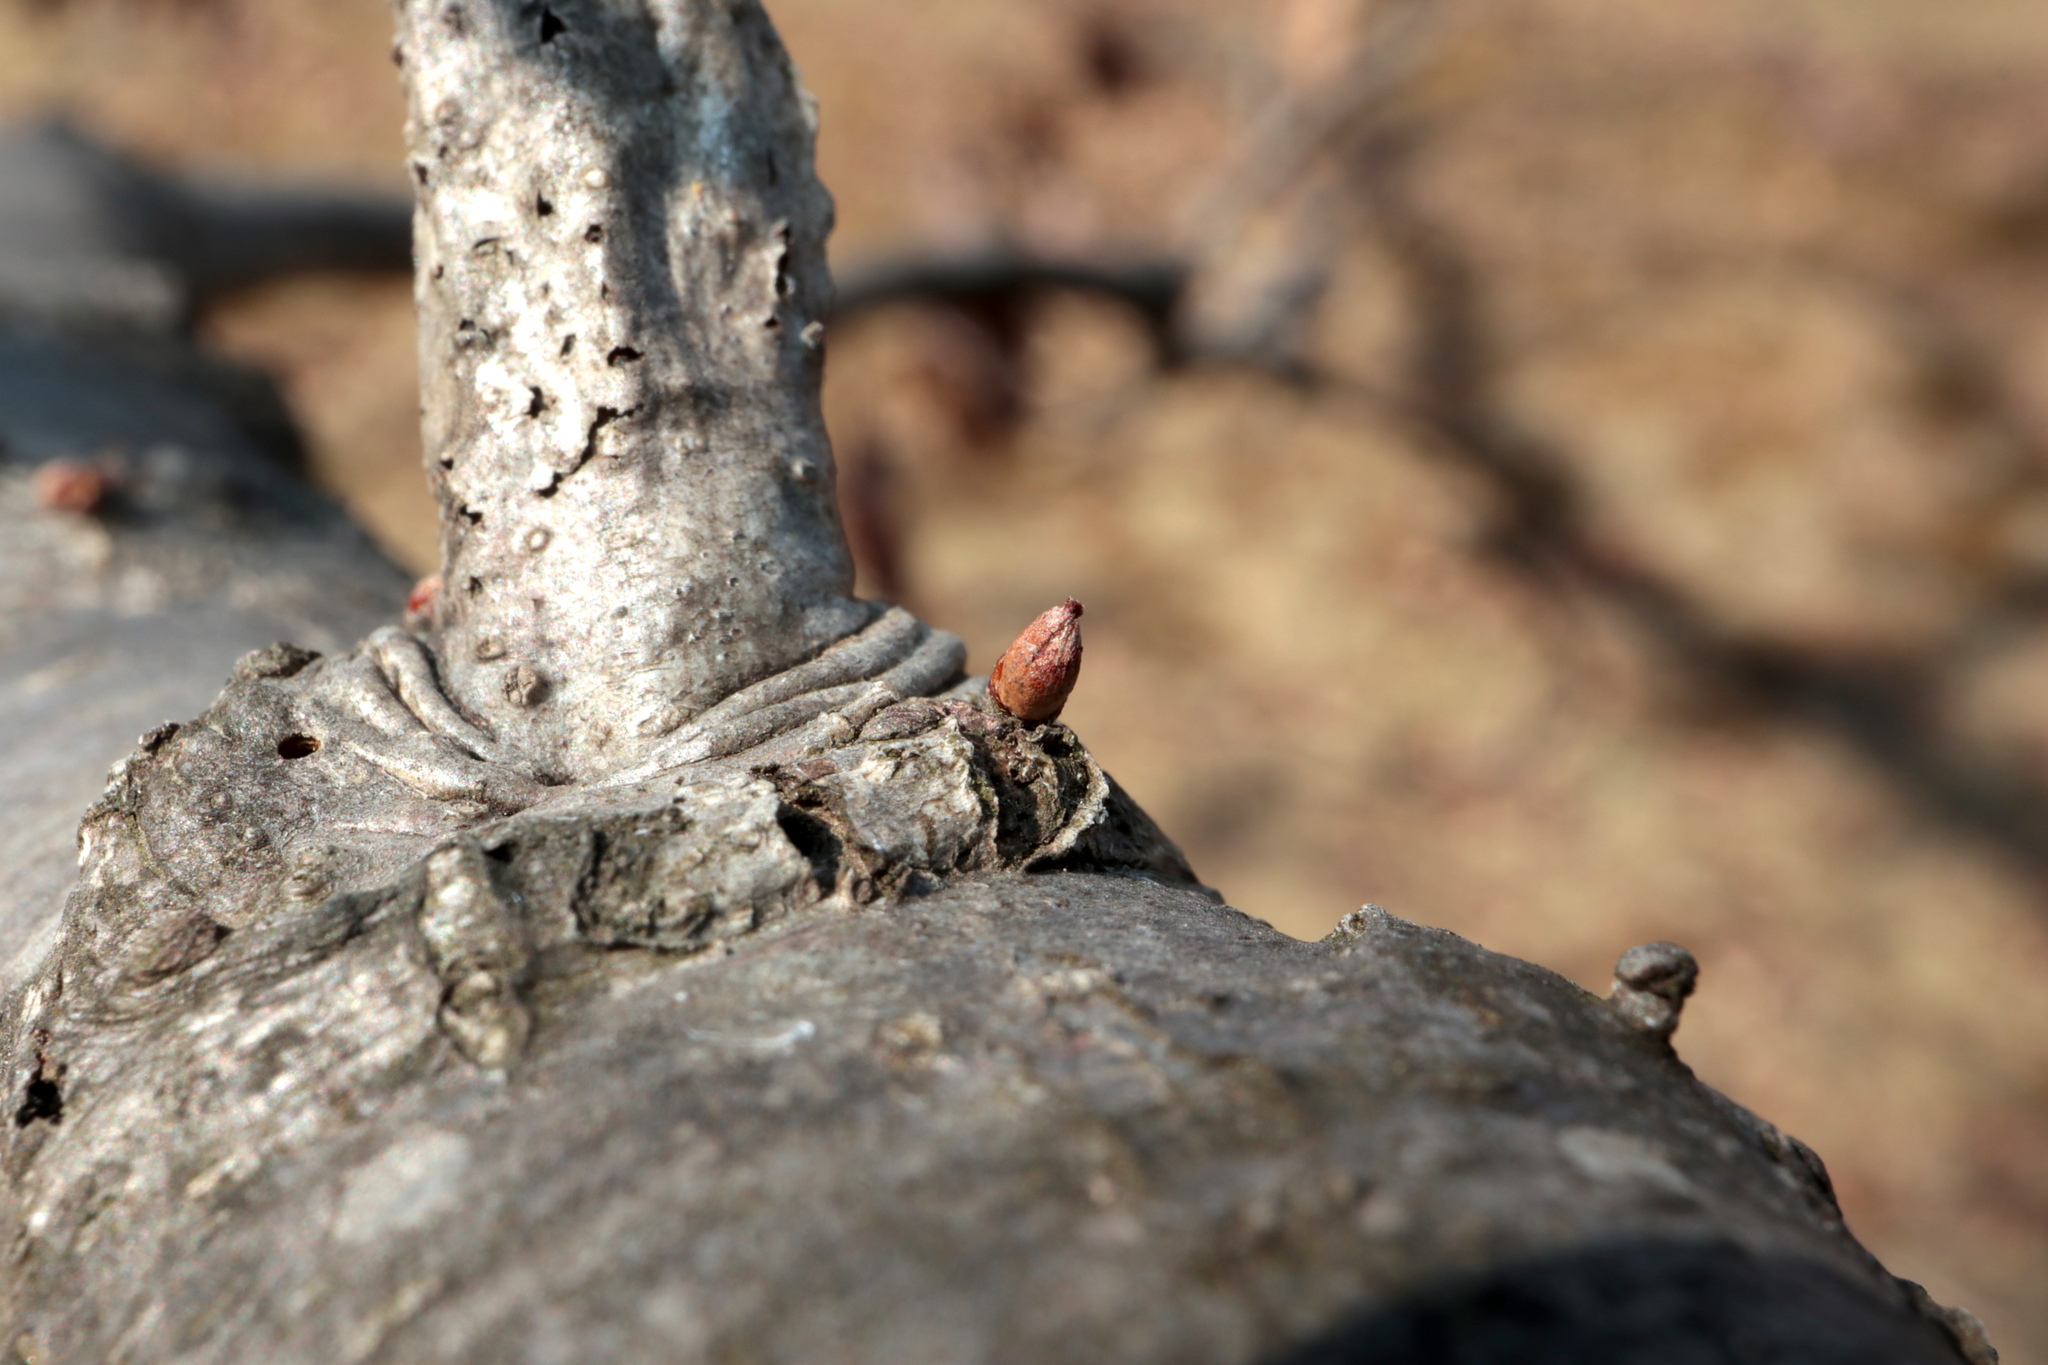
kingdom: Animalia
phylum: Arthropoda
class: Insecta
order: Hymenoptera
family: Cynipidae
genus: Callirhytis
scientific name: Callirhytis
